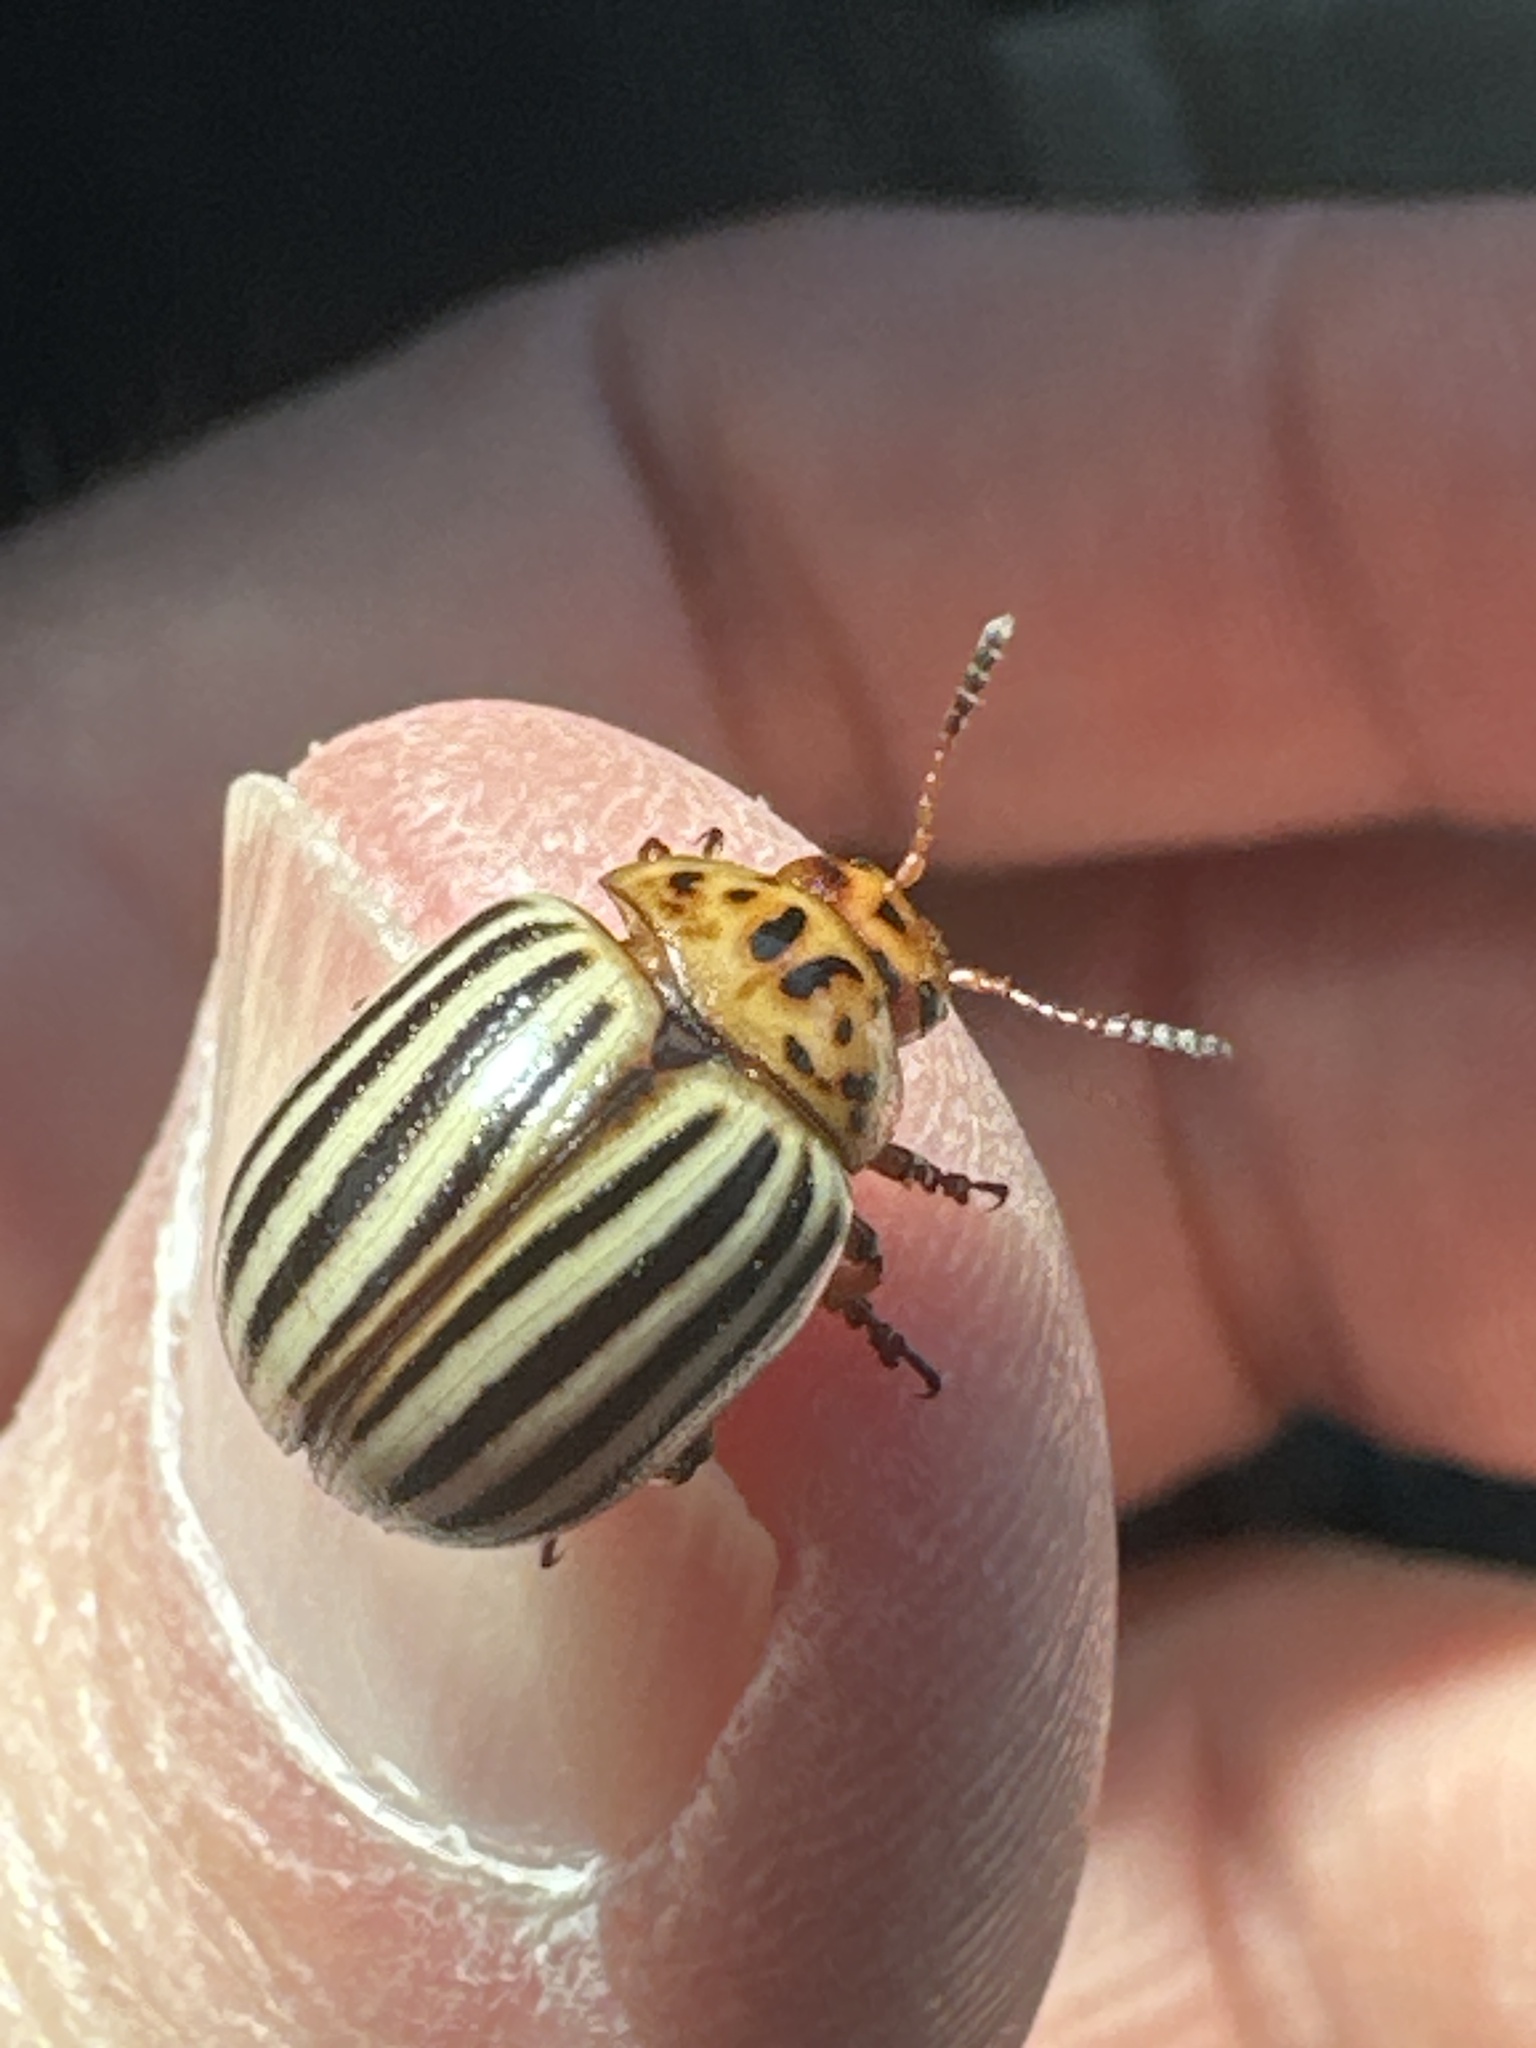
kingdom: Animalia
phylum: Arthropoda
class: Insecta
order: Coleoptera
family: Chrysomelidae
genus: Leptinotarsa
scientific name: Leptinotarsa decemlineata
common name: Colorado potato beetle
